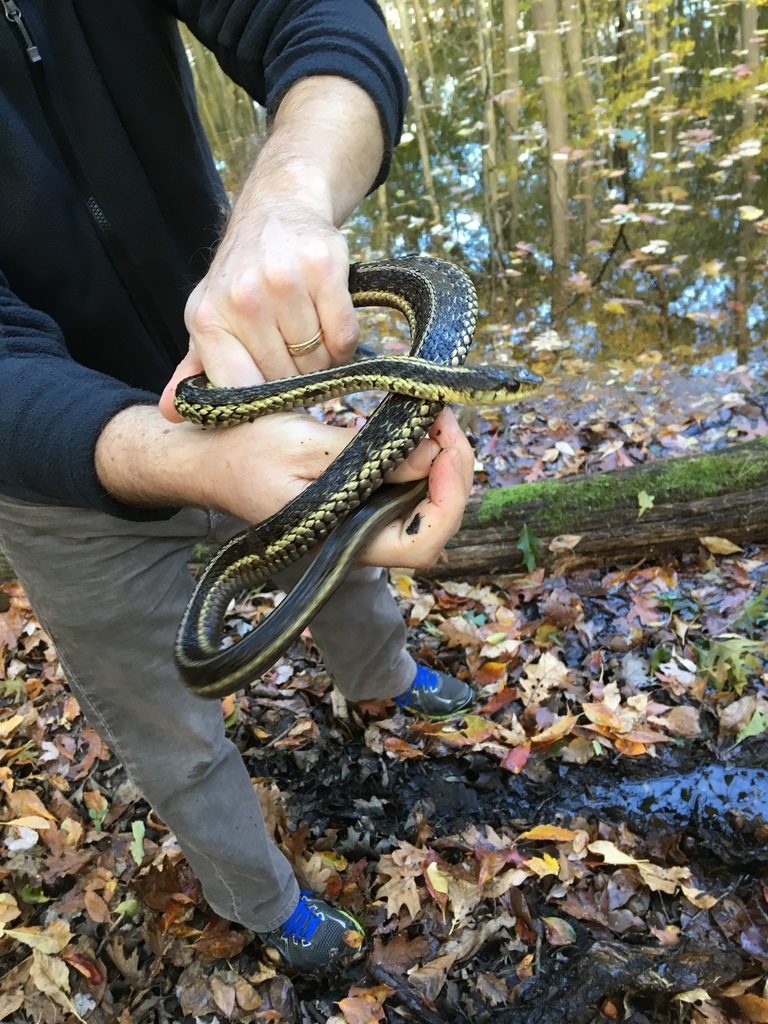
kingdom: Animalia
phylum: Chordata
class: Squamata
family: Colubridae
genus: Thamnophis
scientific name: Thamnophis sirtalis
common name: Common garter snake
